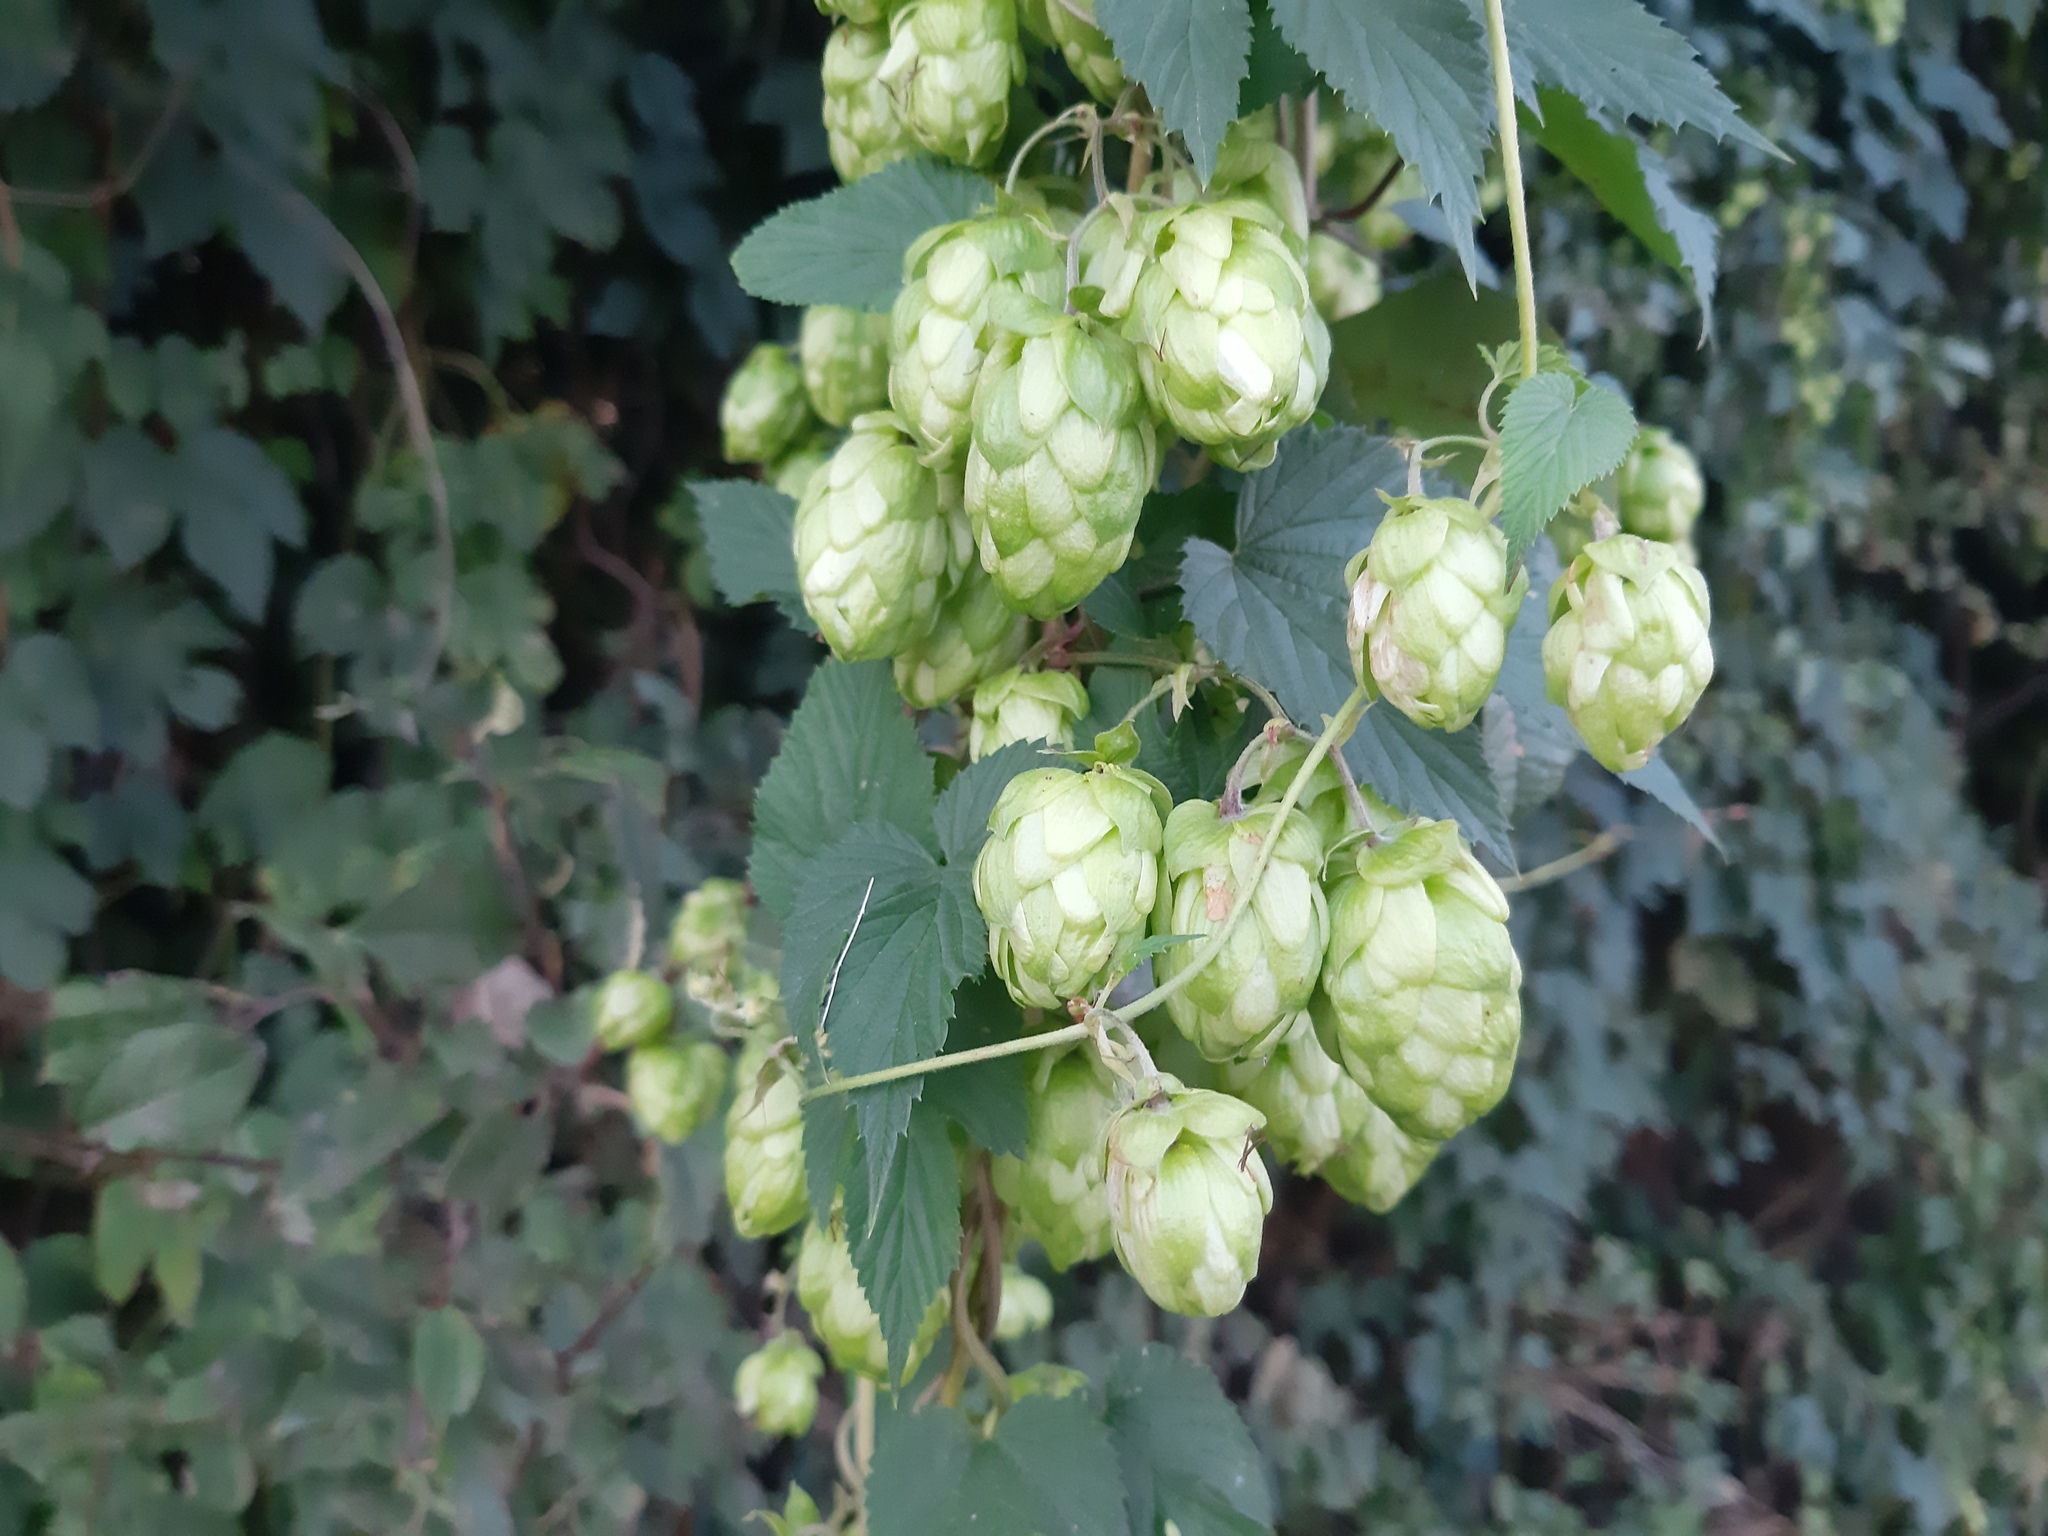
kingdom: Plantae
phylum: Tracheophyta
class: Magnoliopsida
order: Rosales
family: Cannabaceae
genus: Humulus
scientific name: Humulus lupulus
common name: Hop
